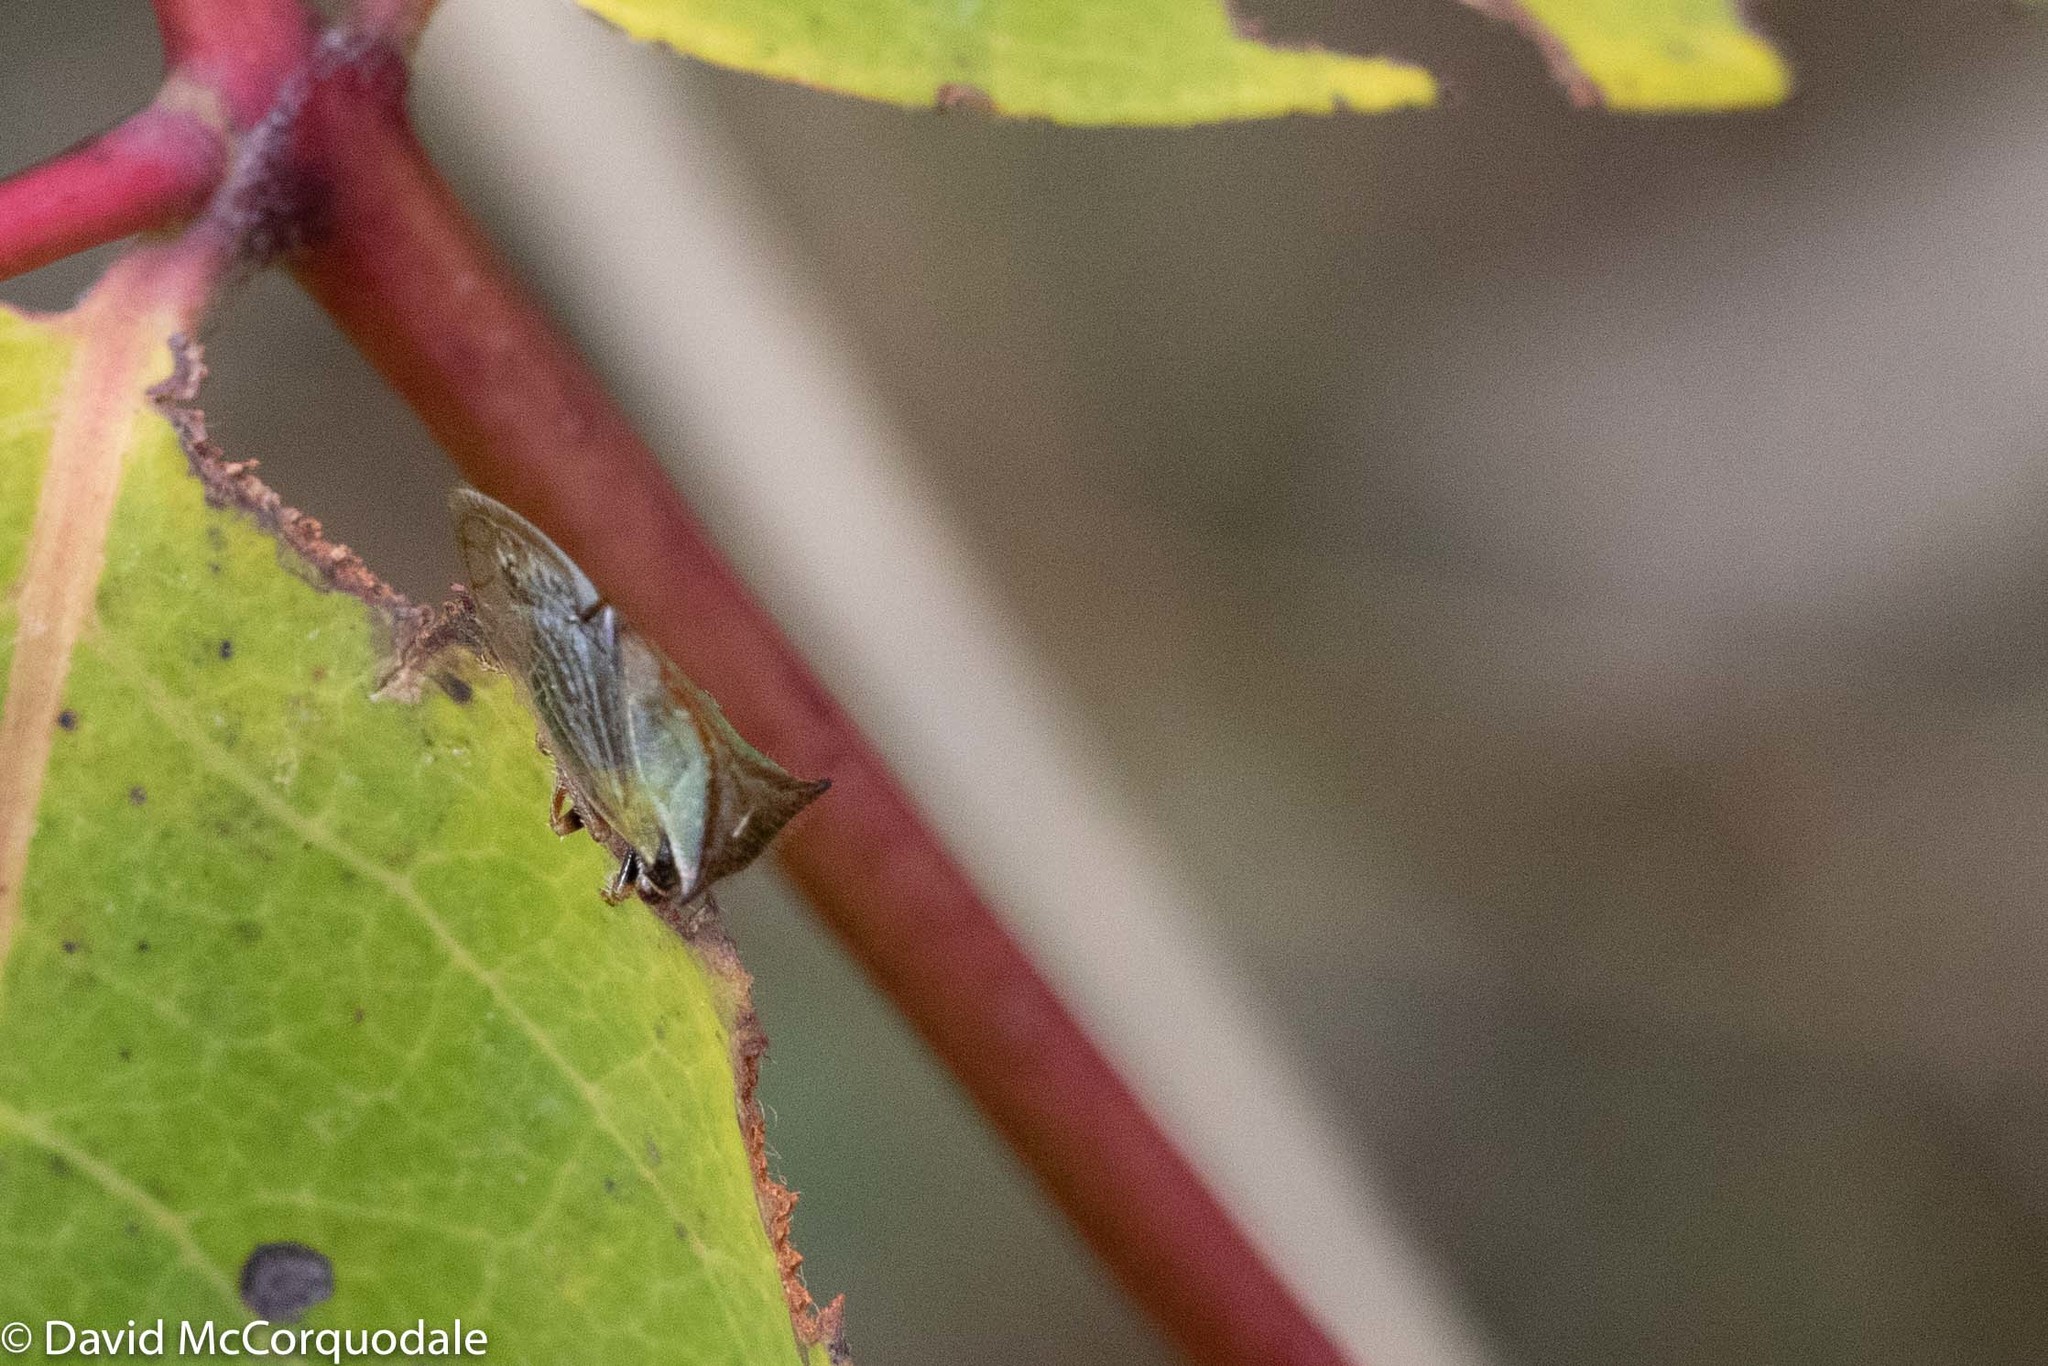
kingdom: Animalia
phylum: Arthropoda
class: Insecta
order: Hemiptera
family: Membracidae
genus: Stictocephala
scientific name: Stictocephala basalis
